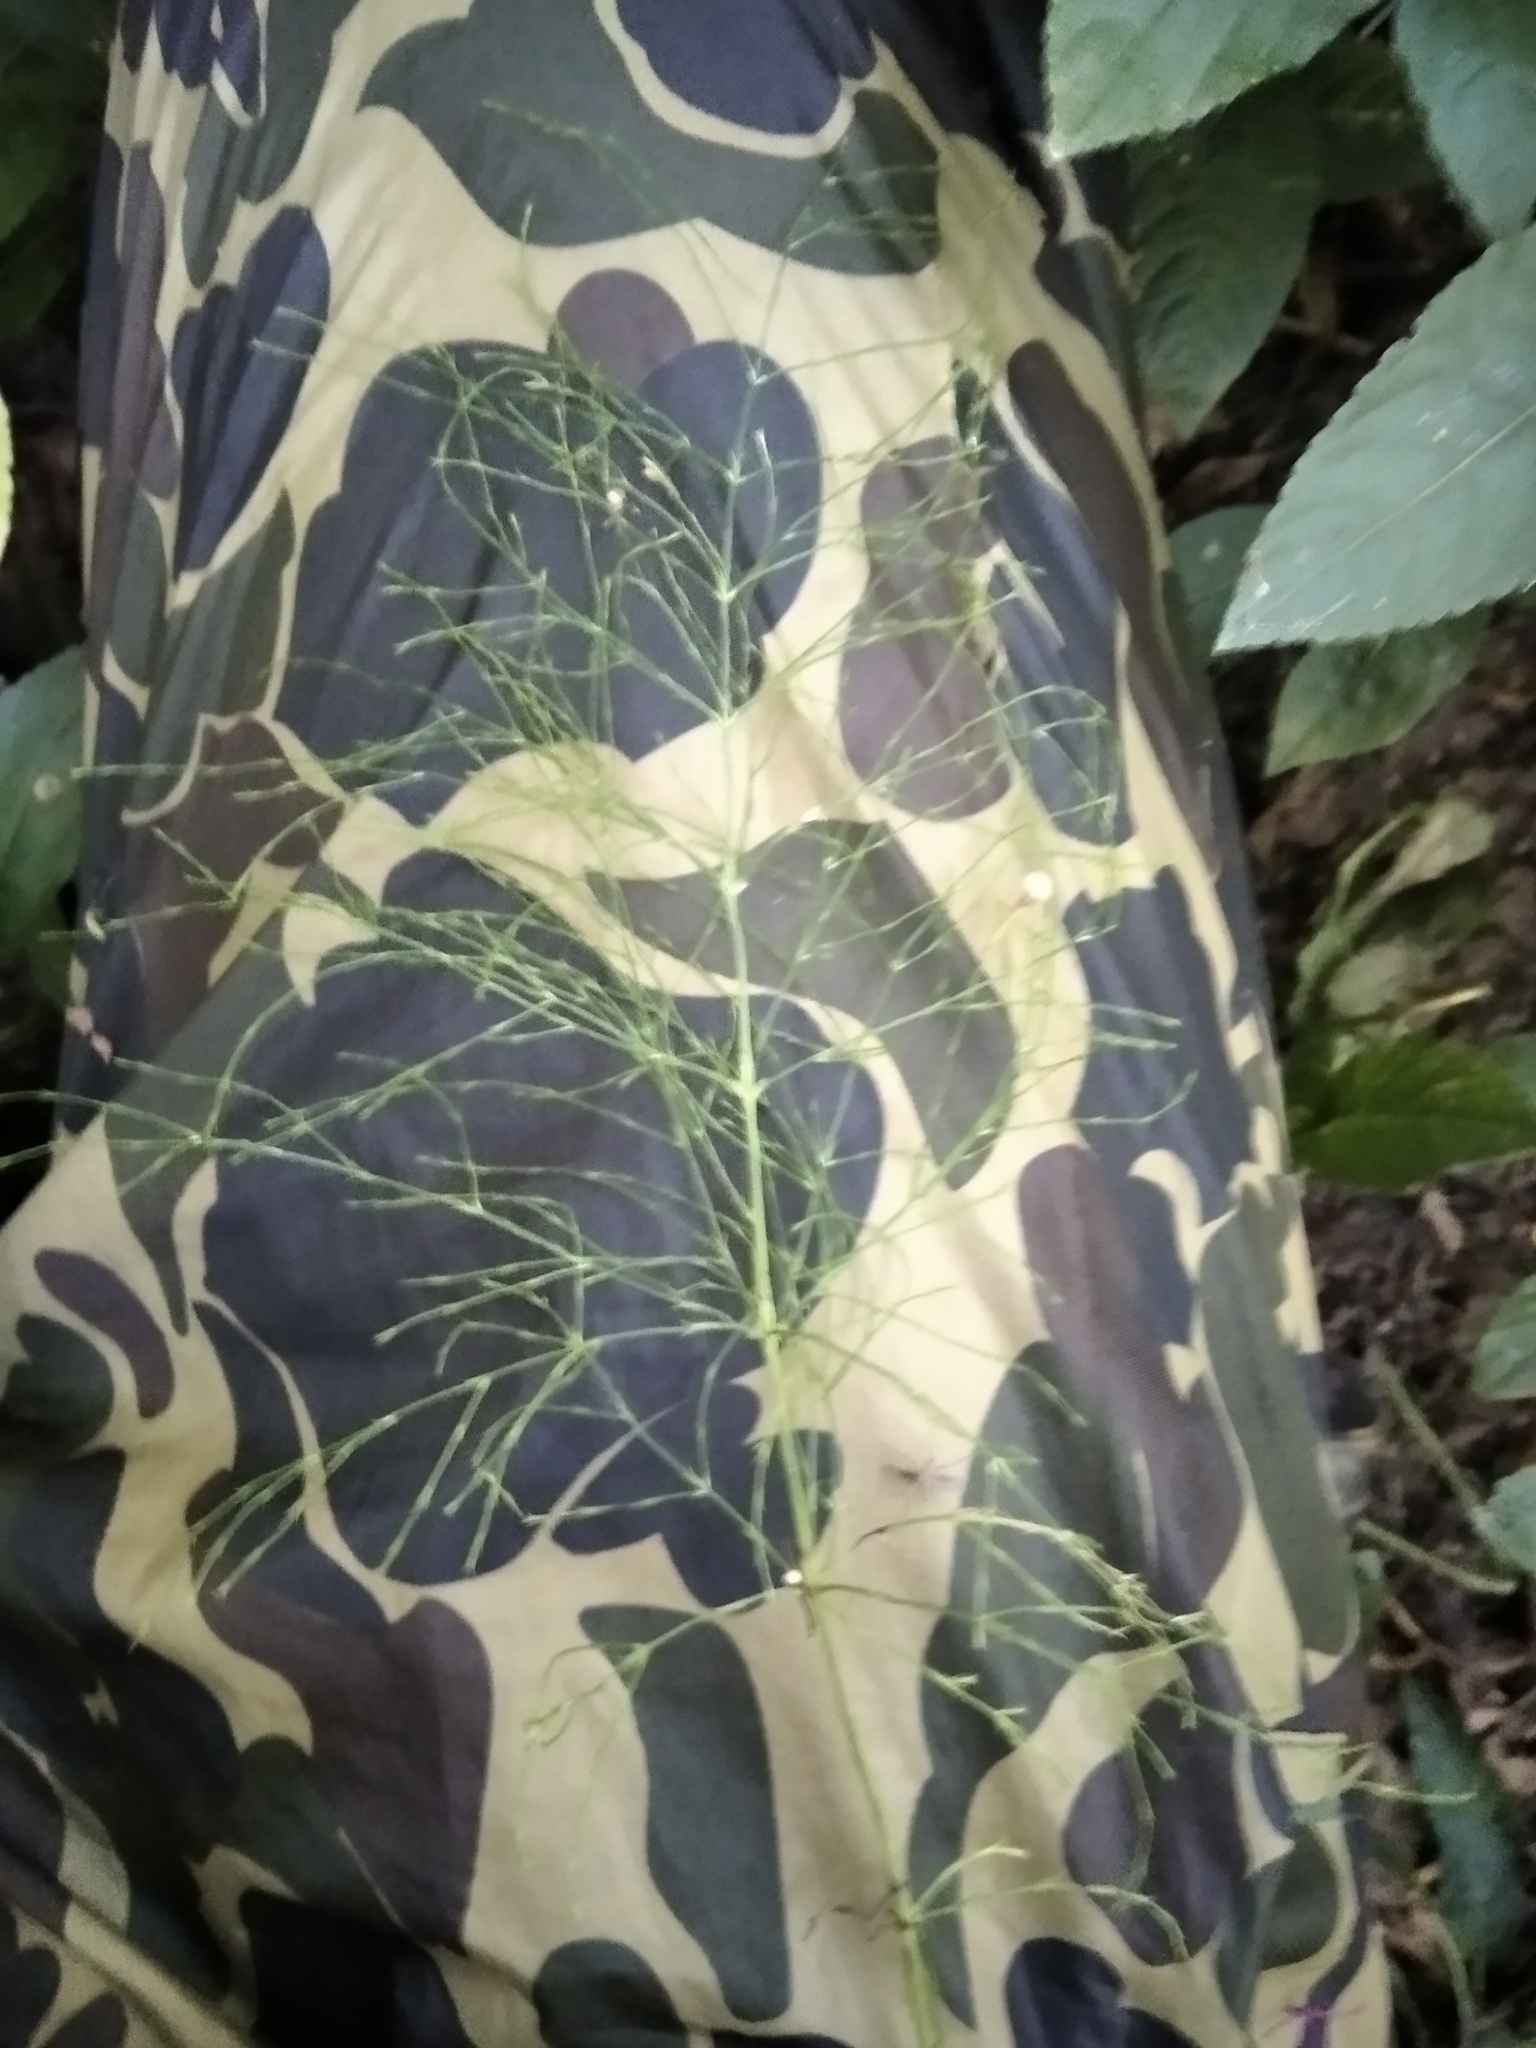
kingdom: Plantae
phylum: Tracheophyta
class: Polypodiopsida
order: Equisetales
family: Equisetaceae
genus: Equisetum
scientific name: Equisetum sylvaticum
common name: Wood horsetail
